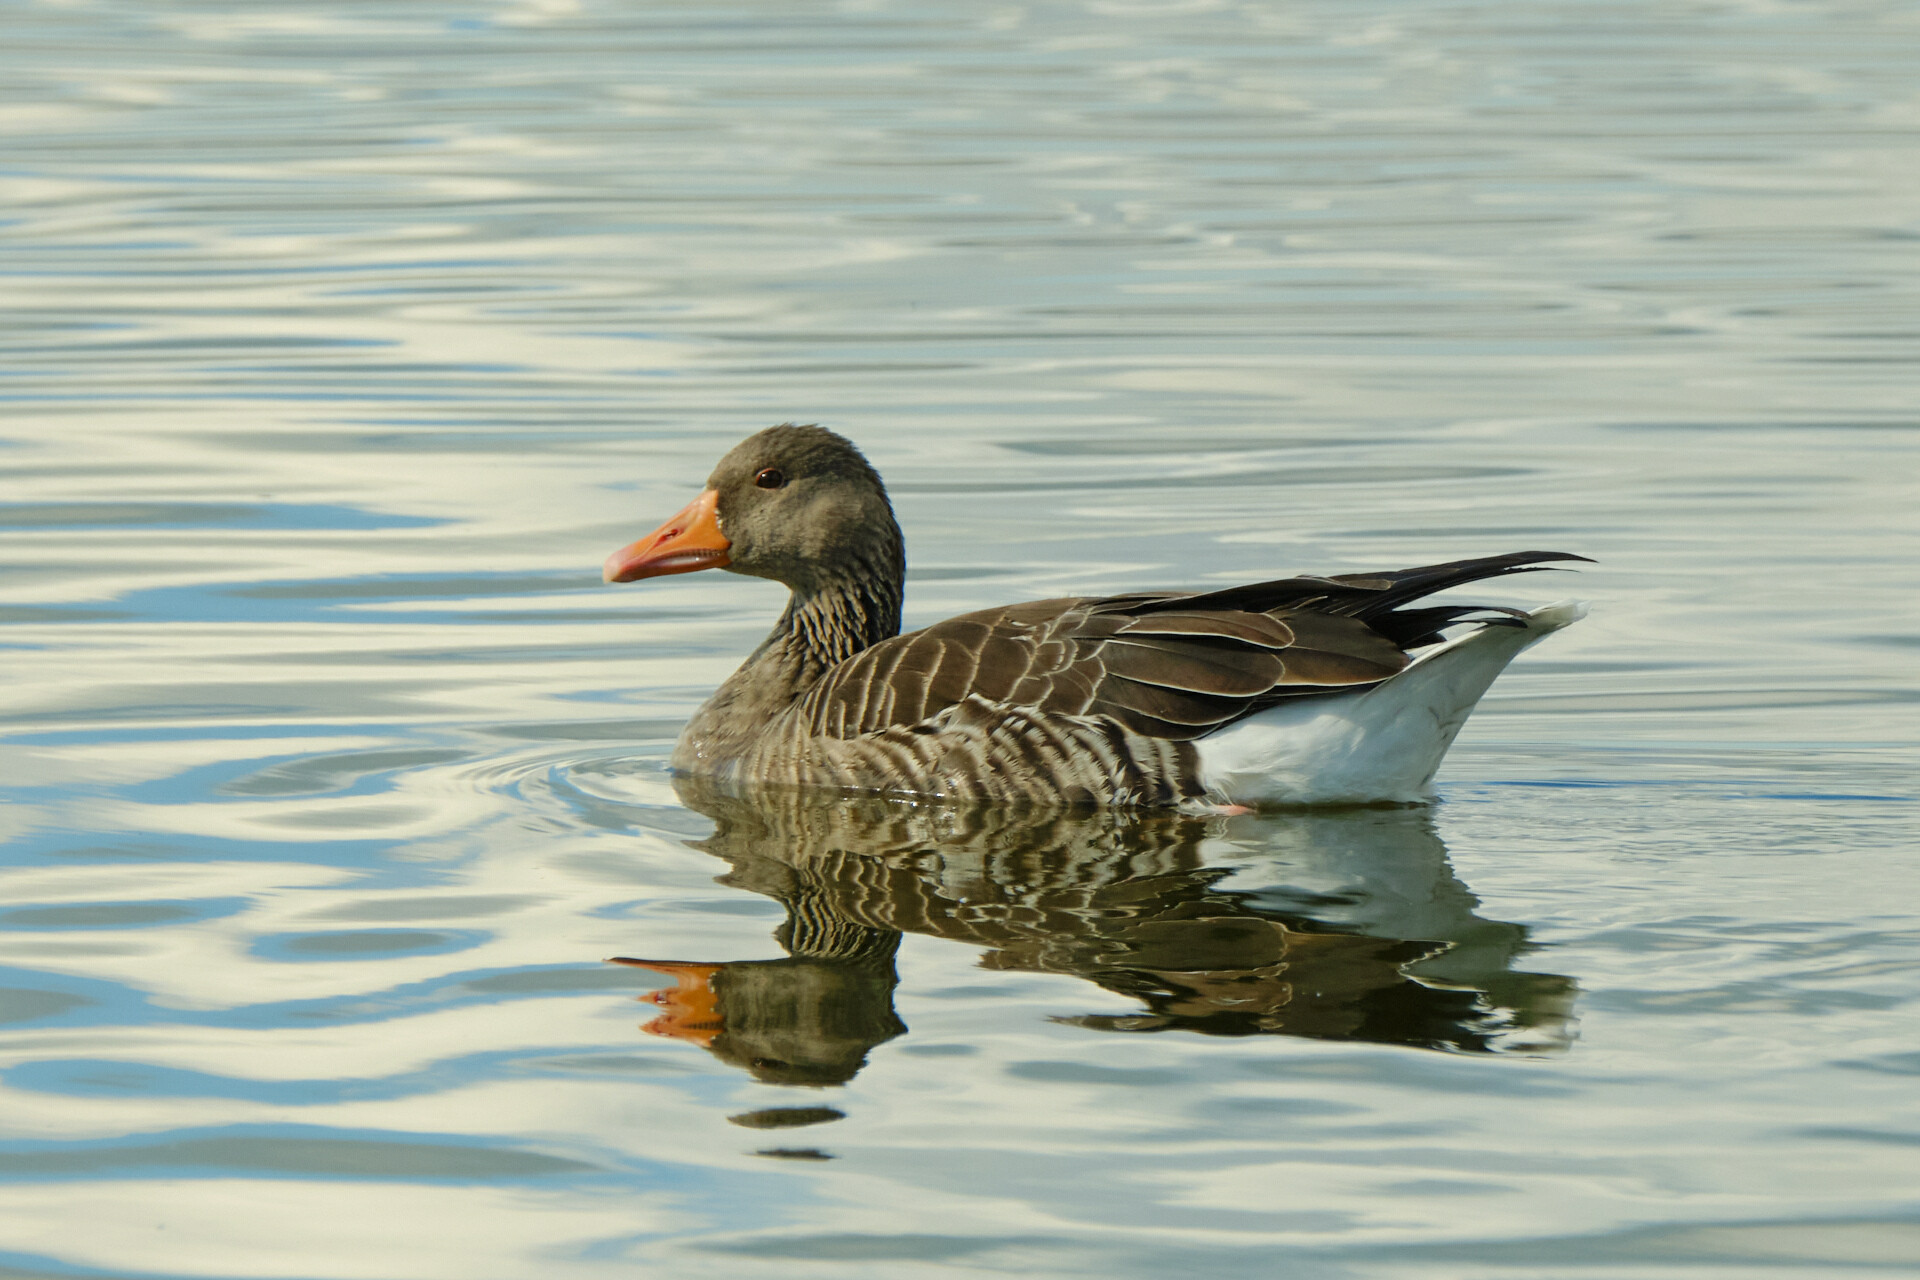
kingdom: Animalia
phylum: Chordata
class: Aves
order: Anseriformes
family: Anatidae
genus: Anser
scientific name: Anser anser
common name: Greylag goose
